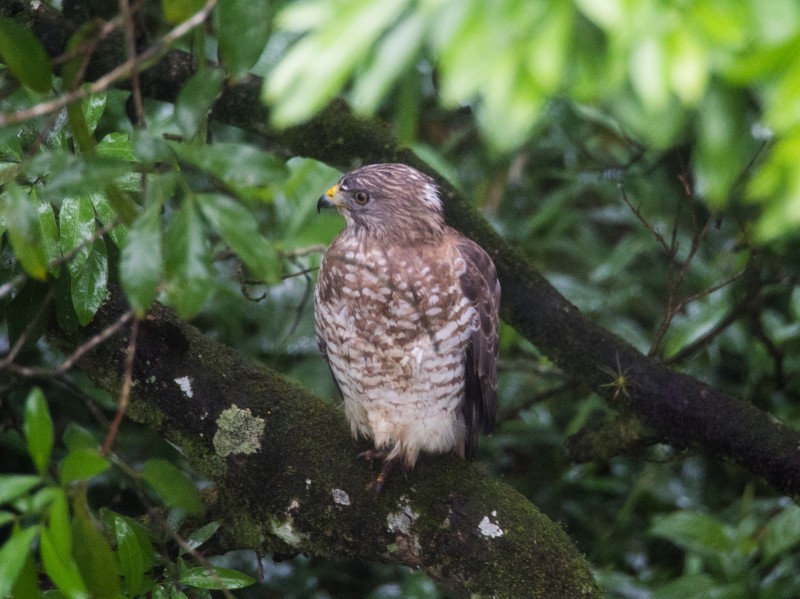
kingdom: Animalia
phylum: Chordata
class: Aves
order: Accipitriformes
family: Accipitridae
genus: Buteo
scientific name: Buteo platypterus
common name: Broad-winged hawk
